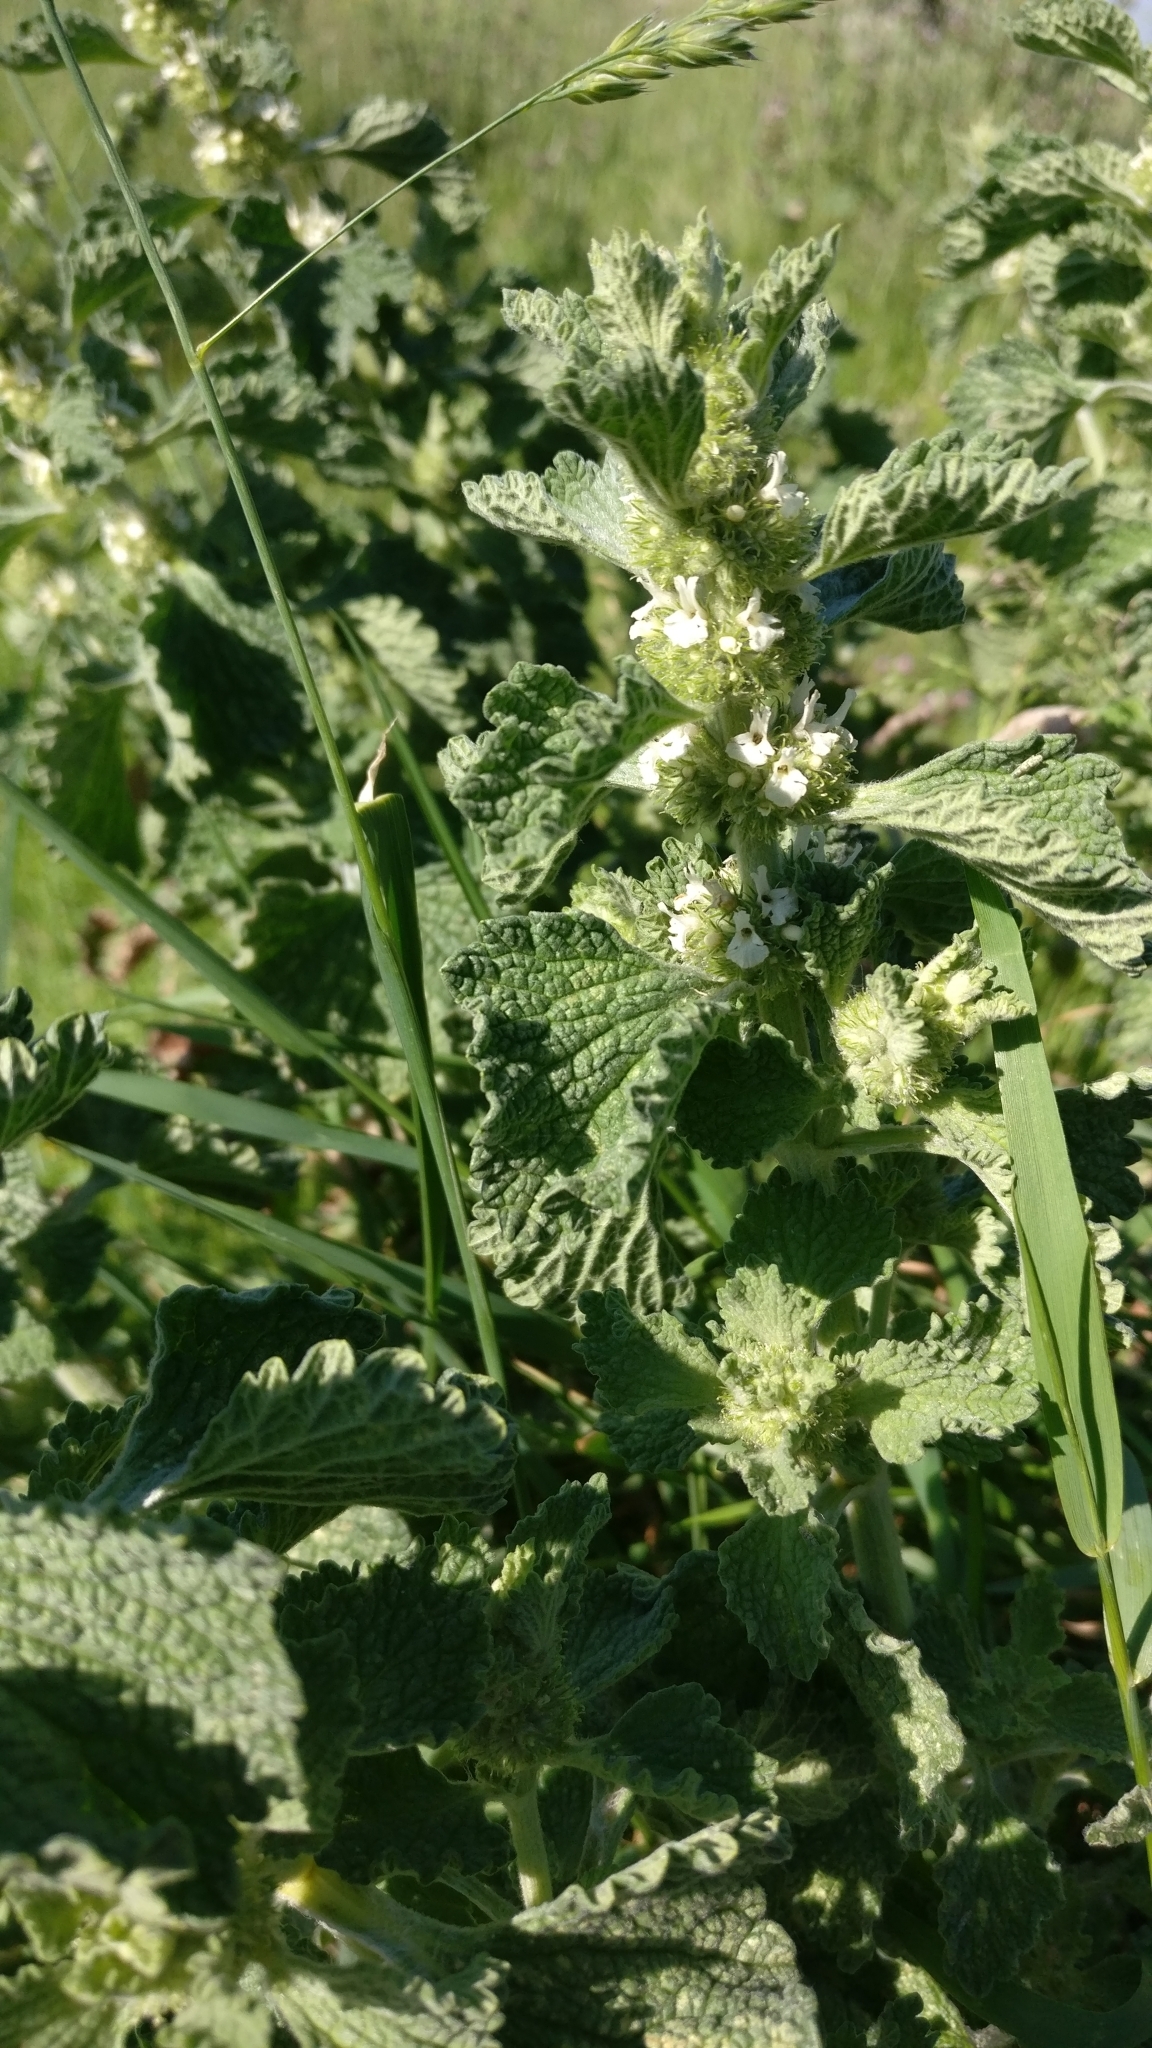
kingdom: Plantae
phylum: Tracheophyta
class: Magnoliopsida
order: Lamiales
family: Lamiaceae
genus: Marrubium
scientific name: Marrubium vulgare
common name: Horehound
